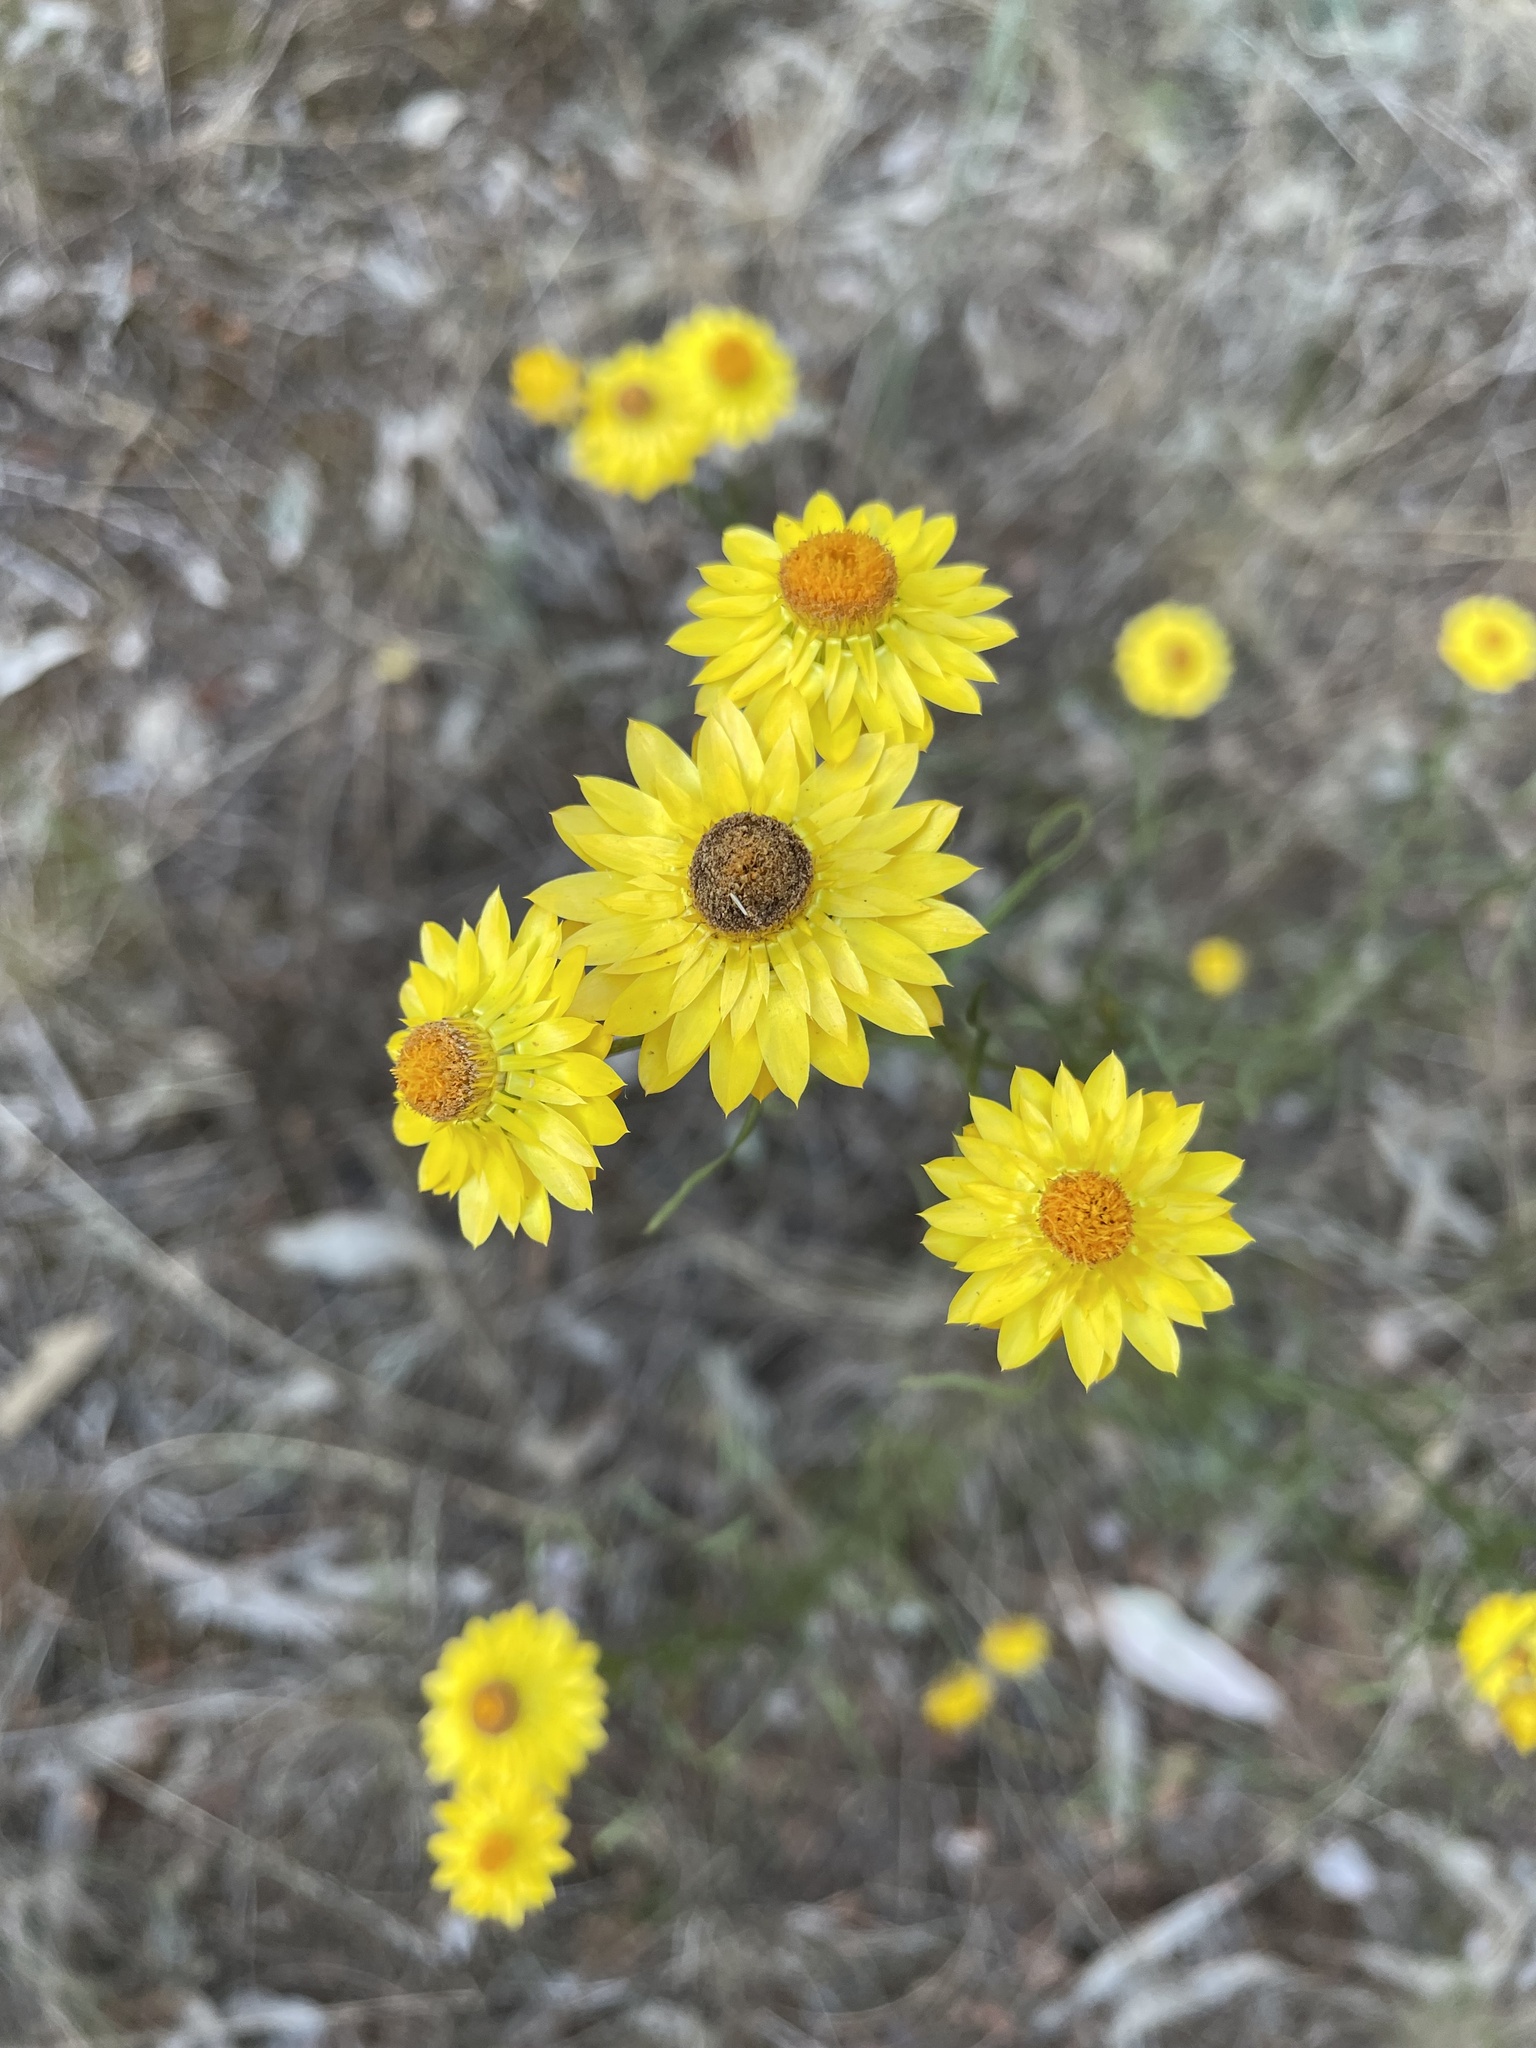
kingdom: Plantae
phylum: Tracheophyta
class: Magnoliopsida
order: Asterales
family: Asteraceae
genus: Xerochrysum
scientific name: Xerochrysum viscosum
